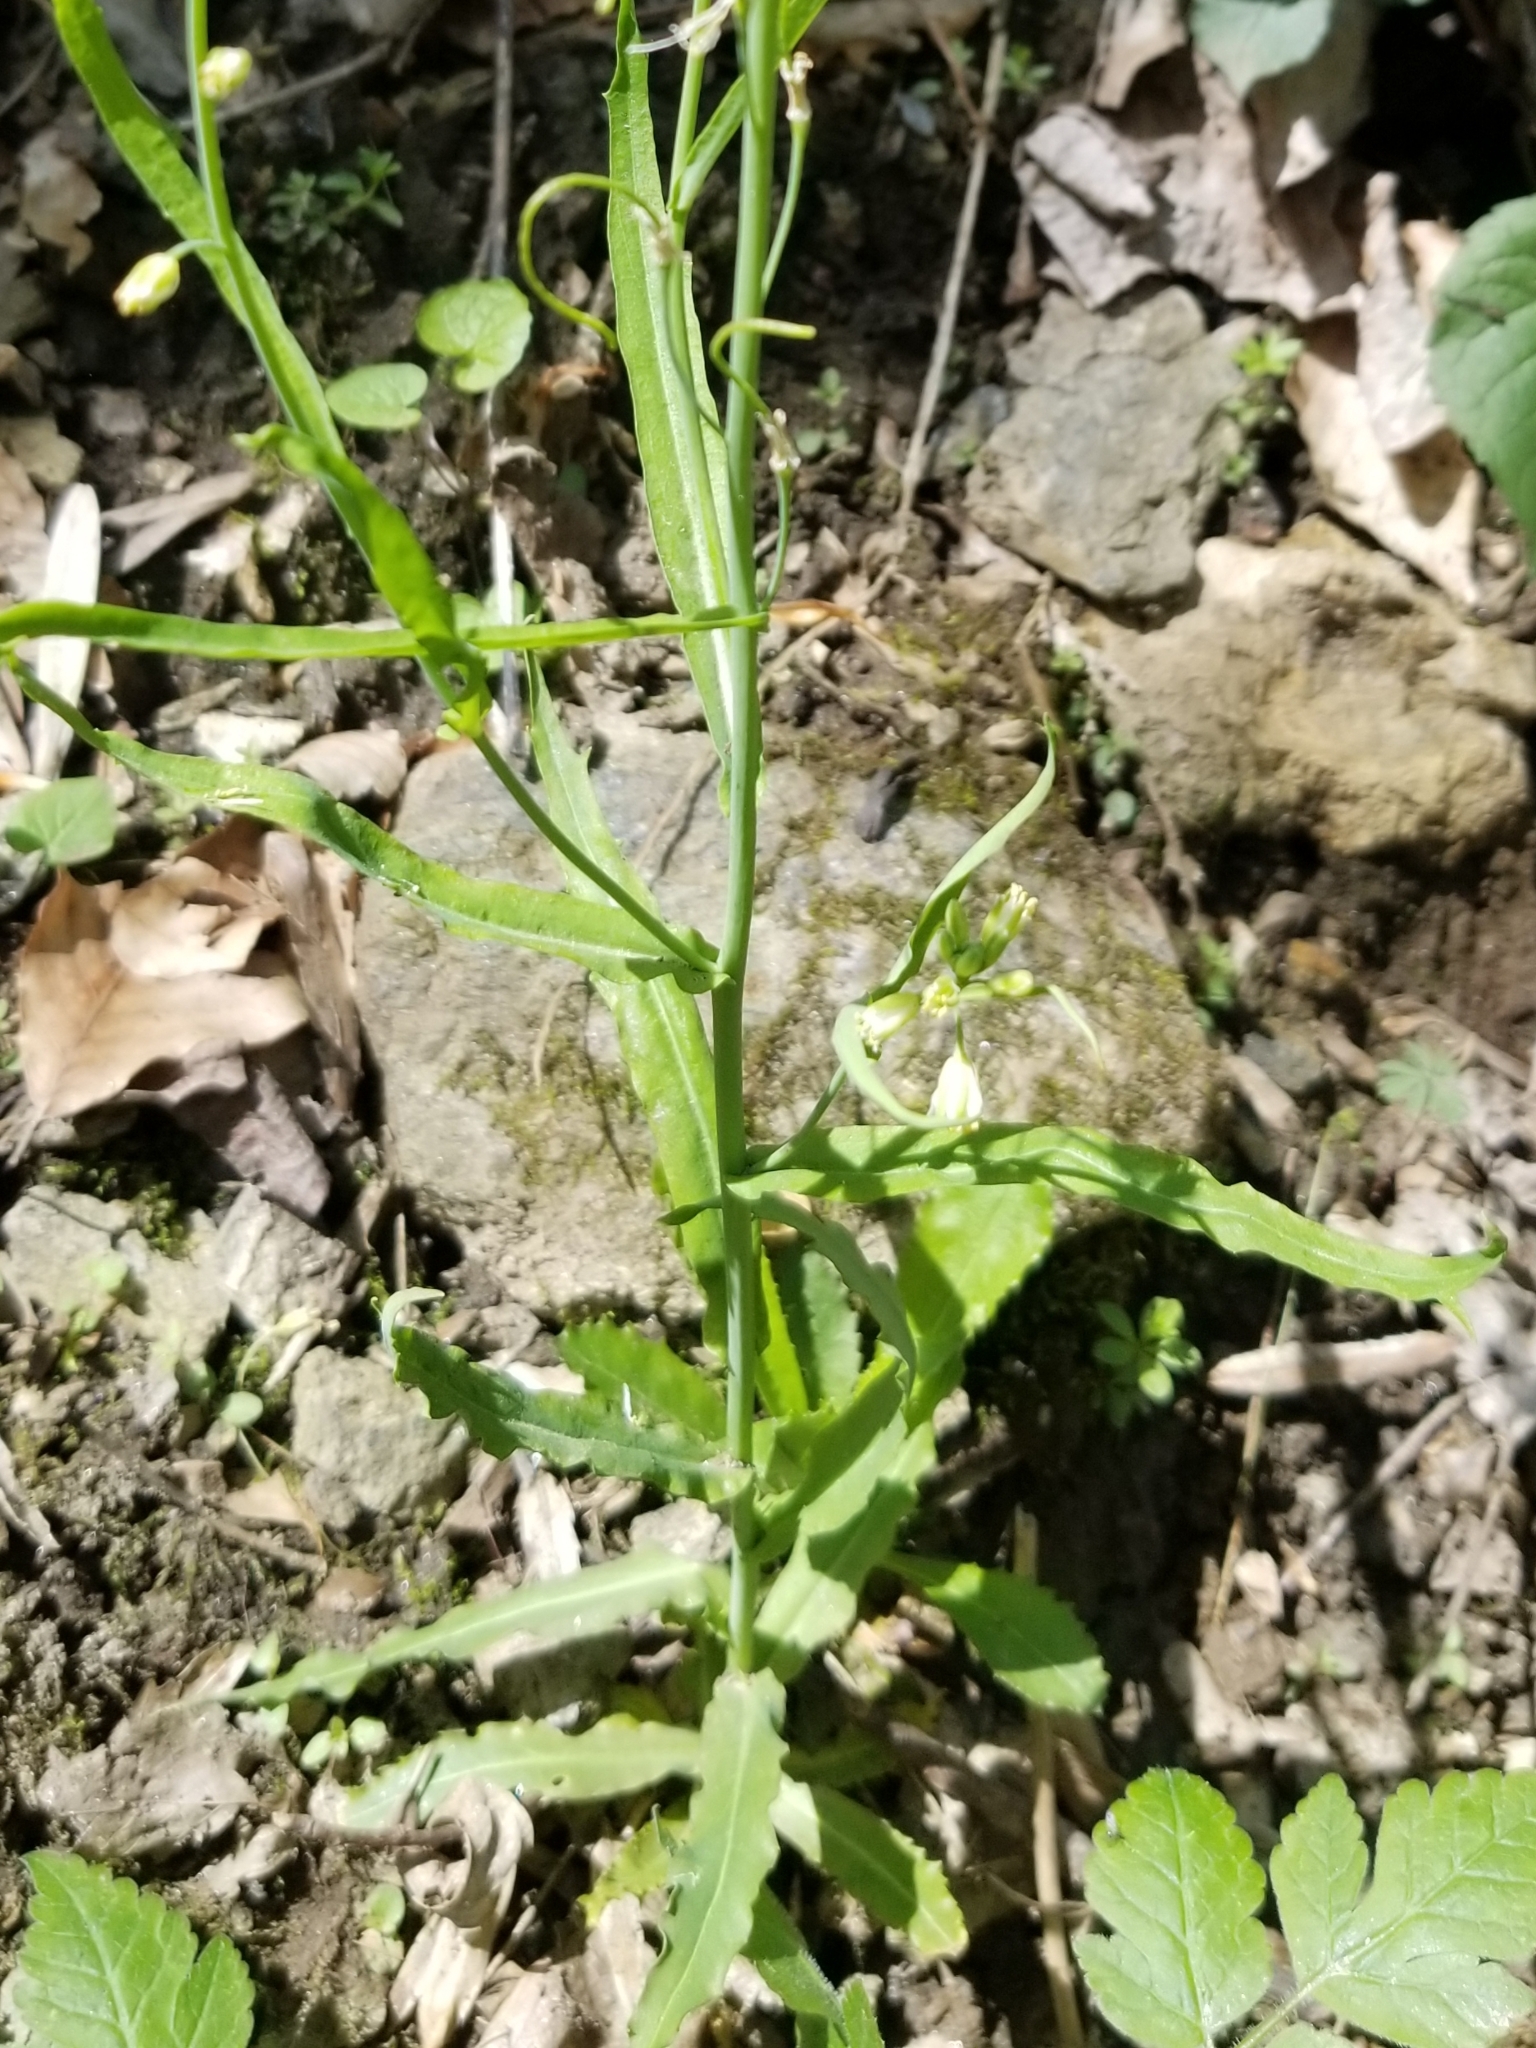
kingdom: Plantae
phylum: Tracheophyta
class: Magnoliopsida
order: Brassicales
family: Brassicaceae
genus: Borodinia
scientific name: Borodinia laevigata
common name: Smooth rockcress
